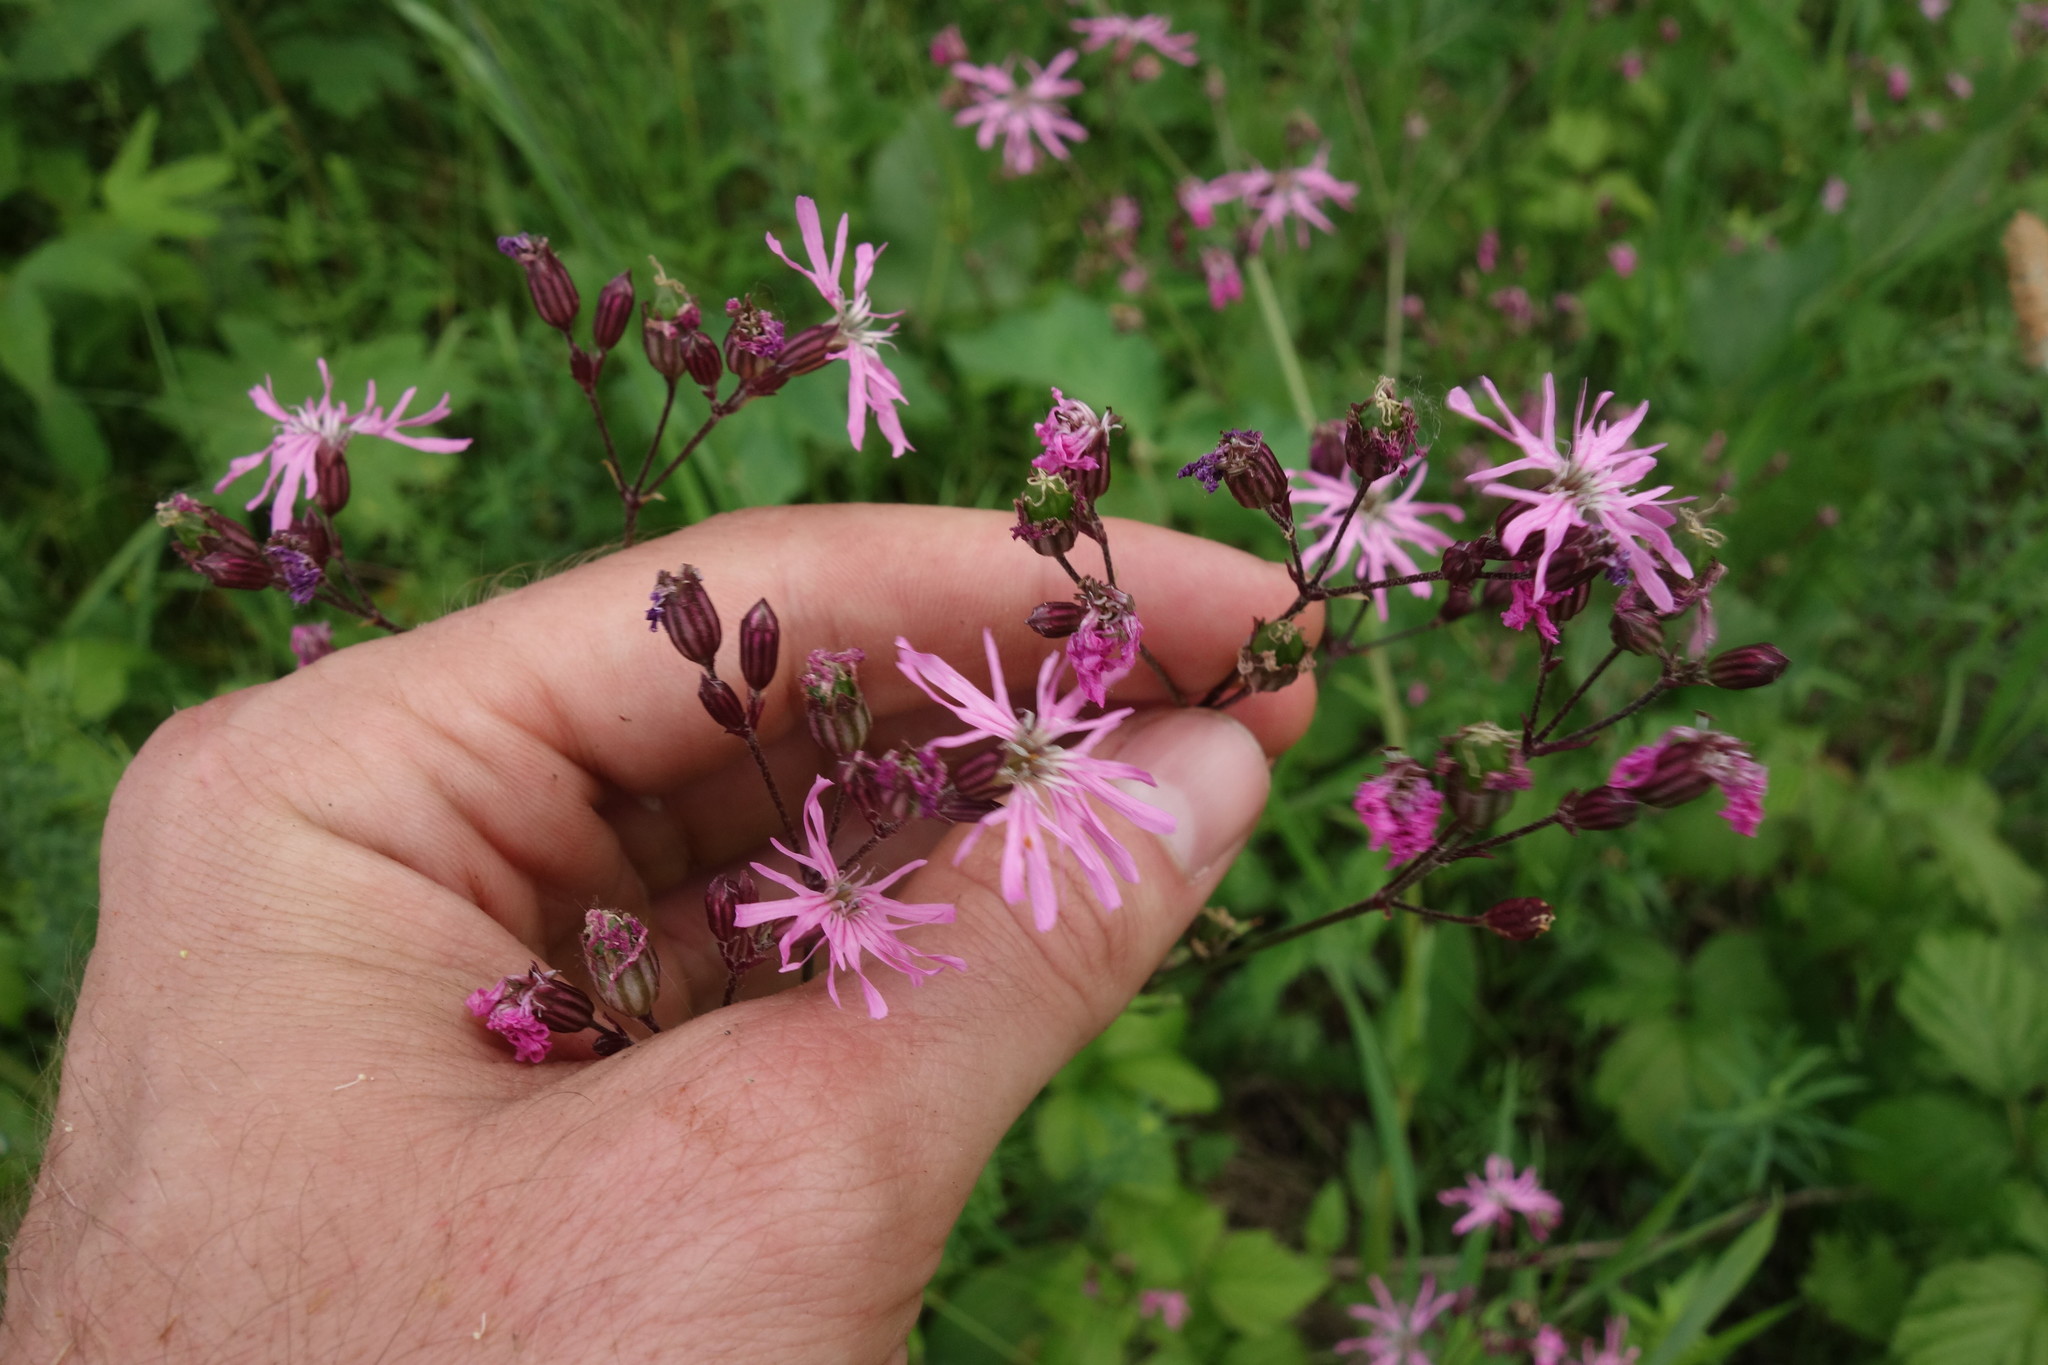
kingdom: Plantae
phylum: Tracheophyta
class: Magnoliopsida
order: Caryophyllales
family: Caryophyllaceae
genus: Silene
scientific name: Silene flos-cuculi
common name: Ragged-robin
